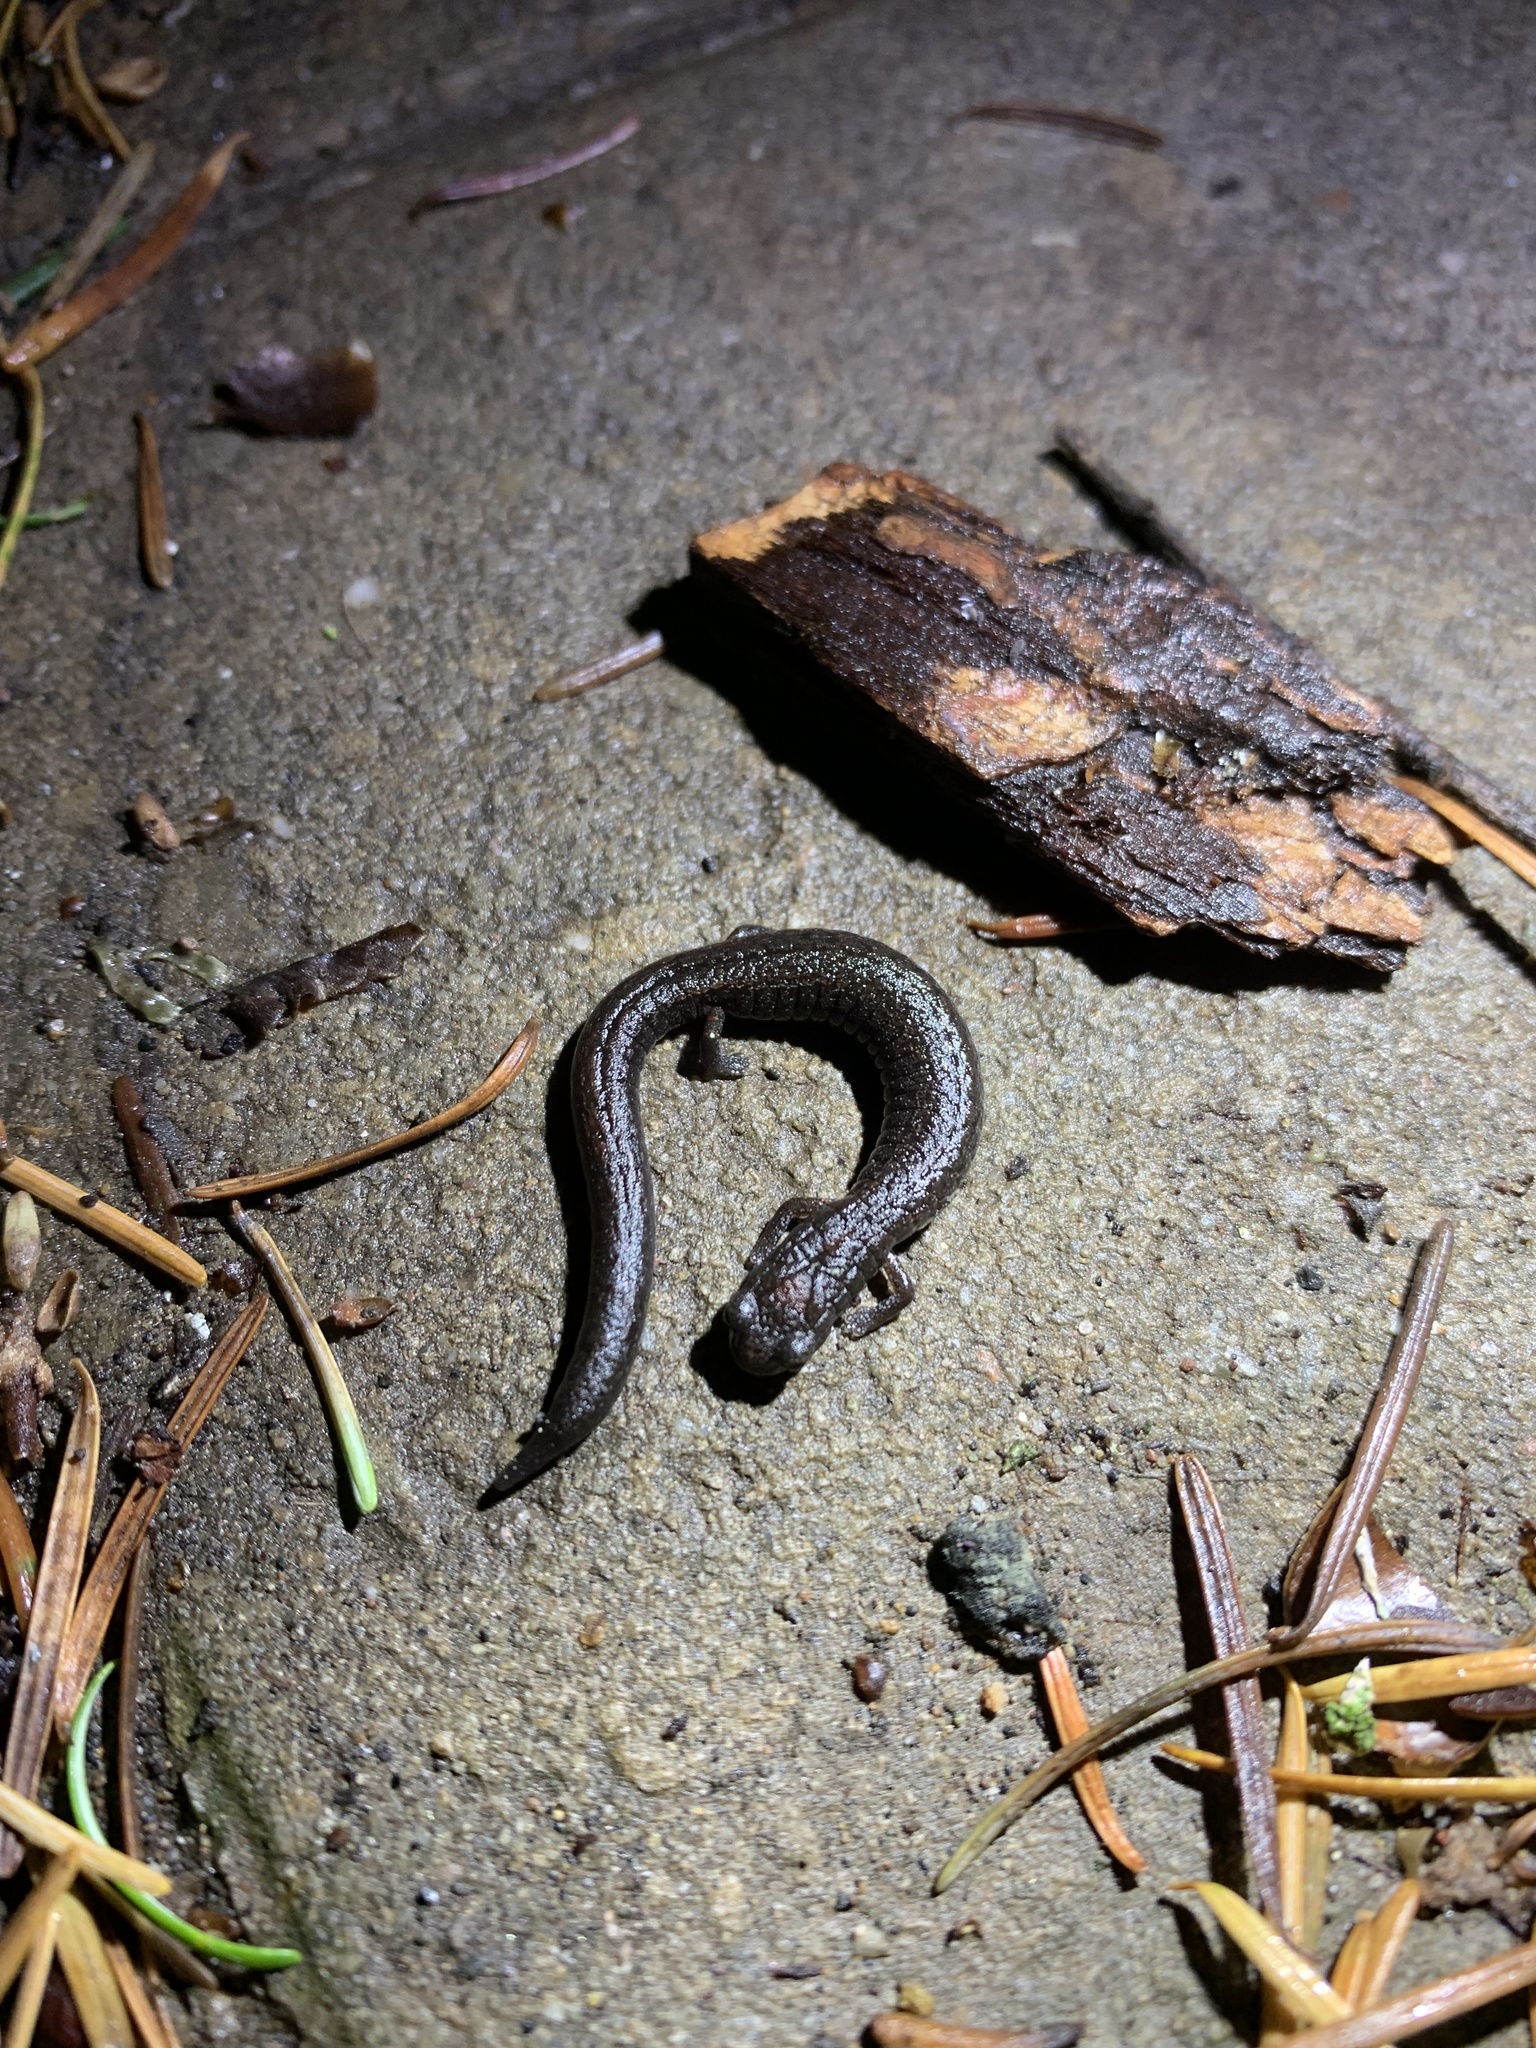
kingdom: Animalia
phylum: Chordata
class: Amphibia
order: Caudata
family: Plethodontidae
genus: Batrachoseps
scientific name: Batrachoseps attenuatus
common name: California slender salamander
